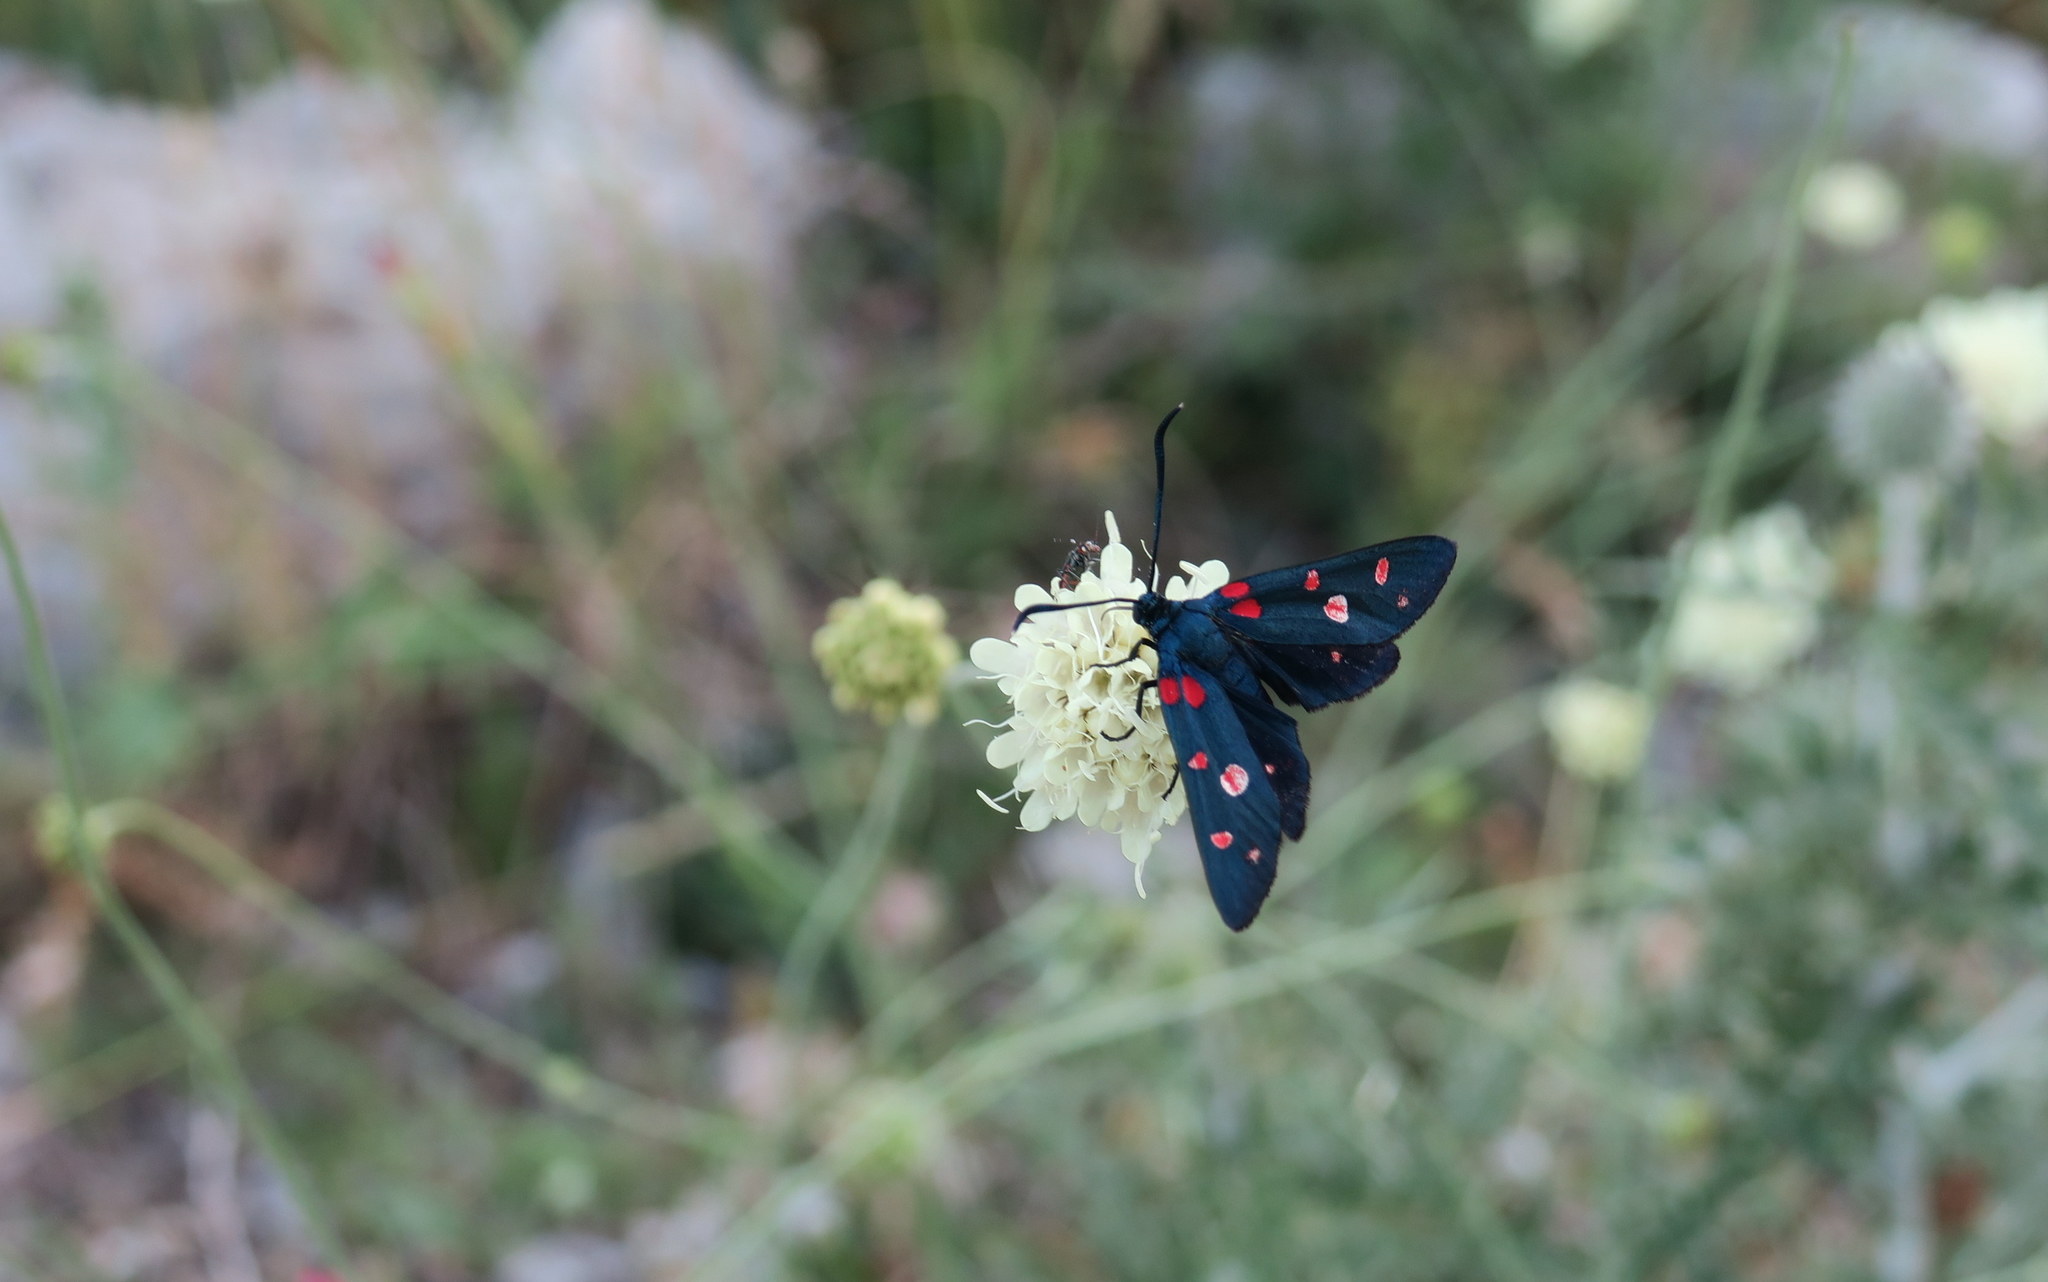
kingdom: Animalia
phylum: Arthropoda
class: Insecta
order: Lepidoptera
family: Zygaenidae
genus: Zygaena
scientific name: Zygaena ephialtes
